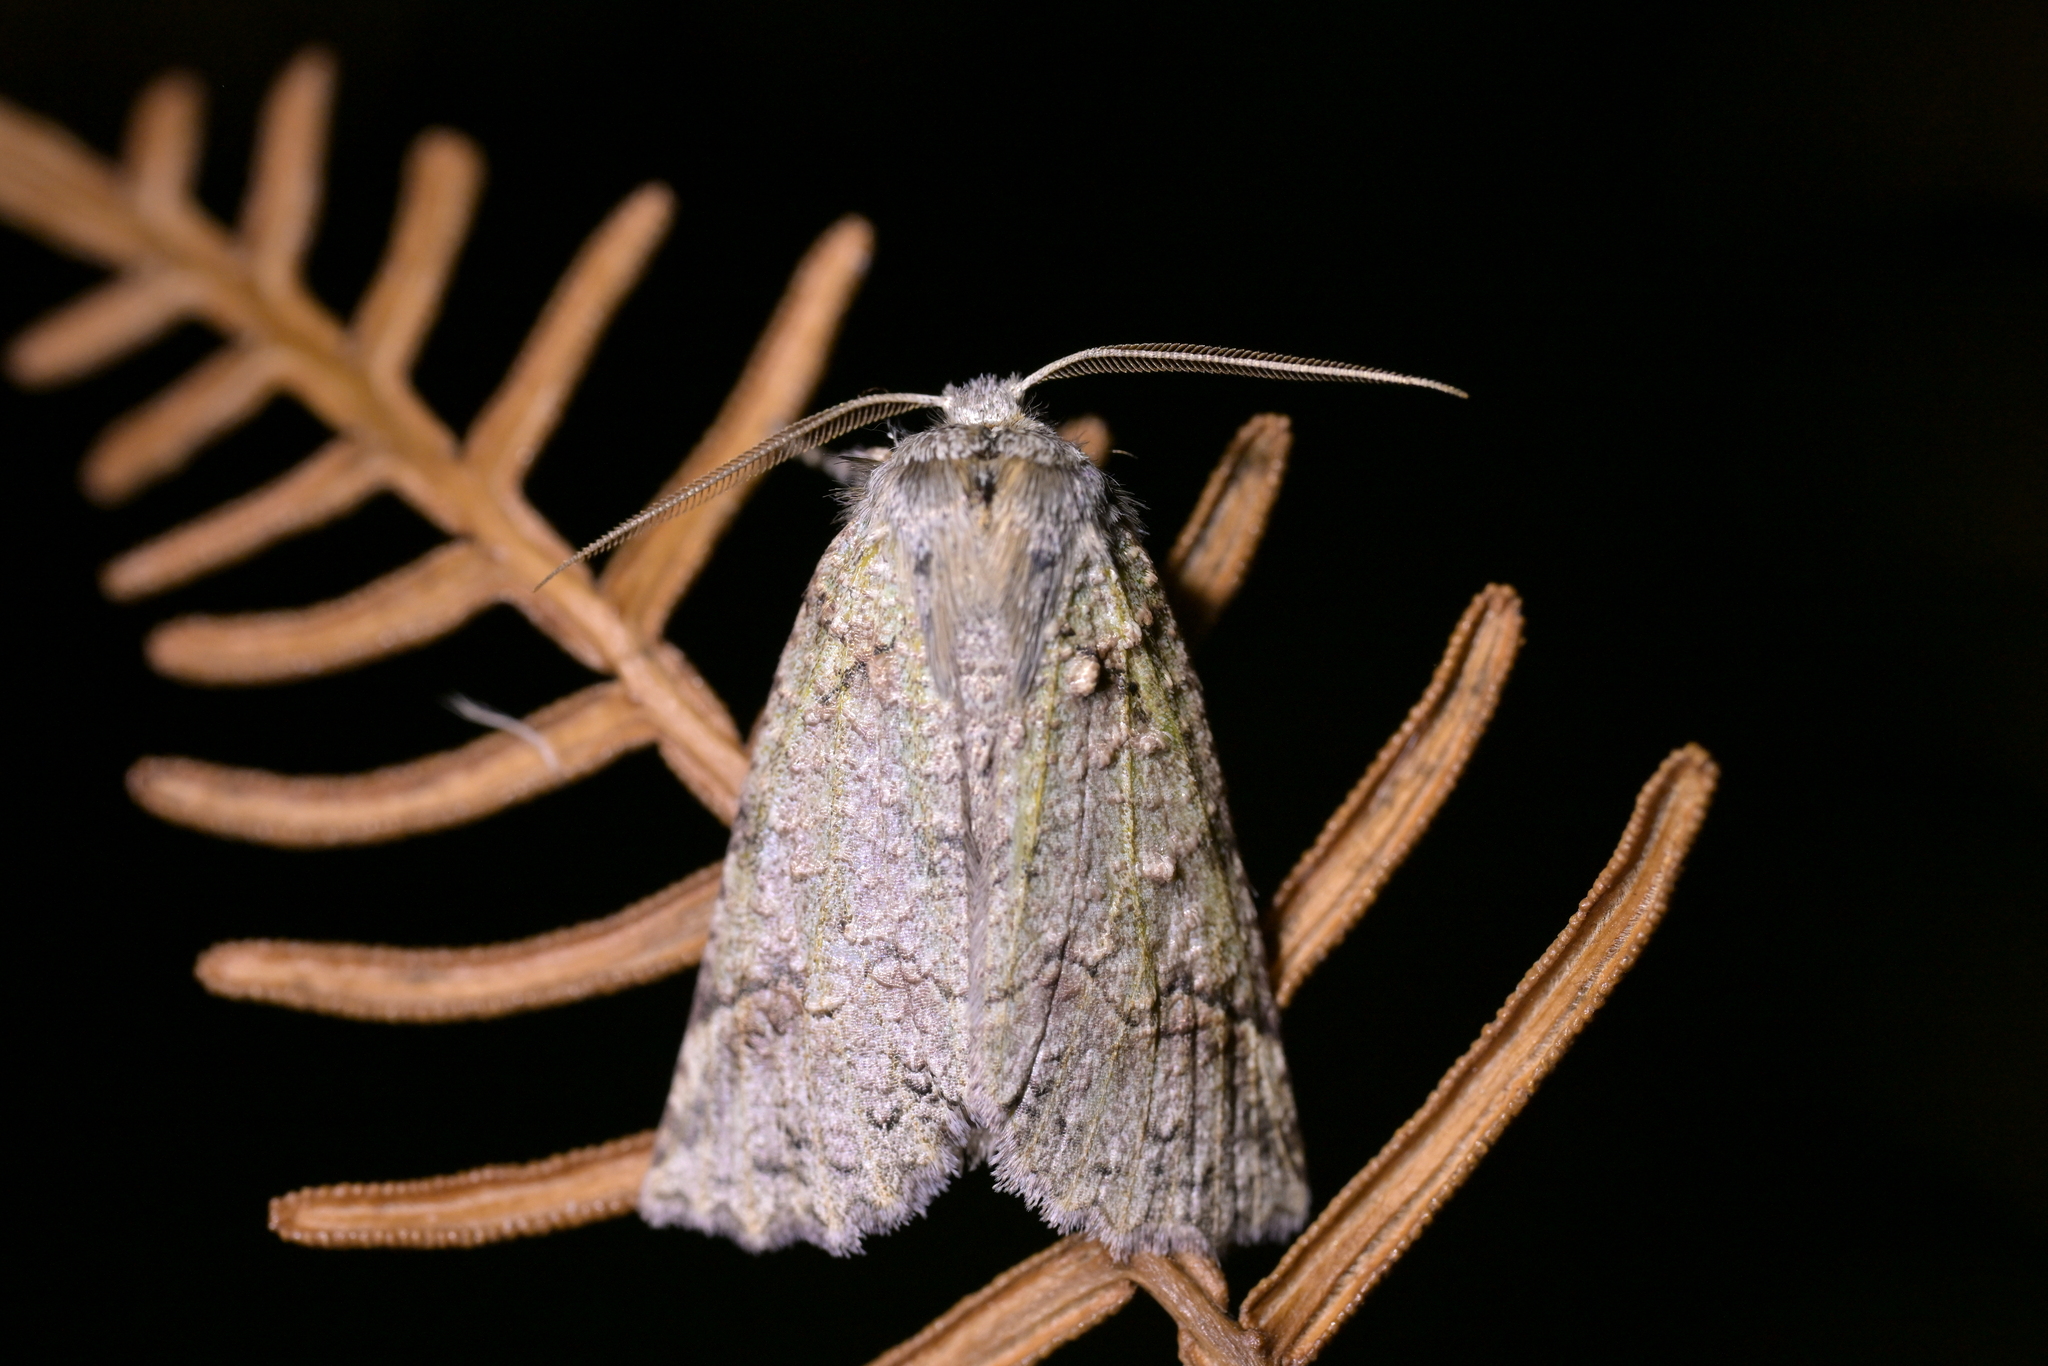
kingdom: Animalia
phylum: Arthropoda
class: Insecta
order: Lepidoptera
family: Geometridae
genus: Declana
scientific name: Declana floccosa
